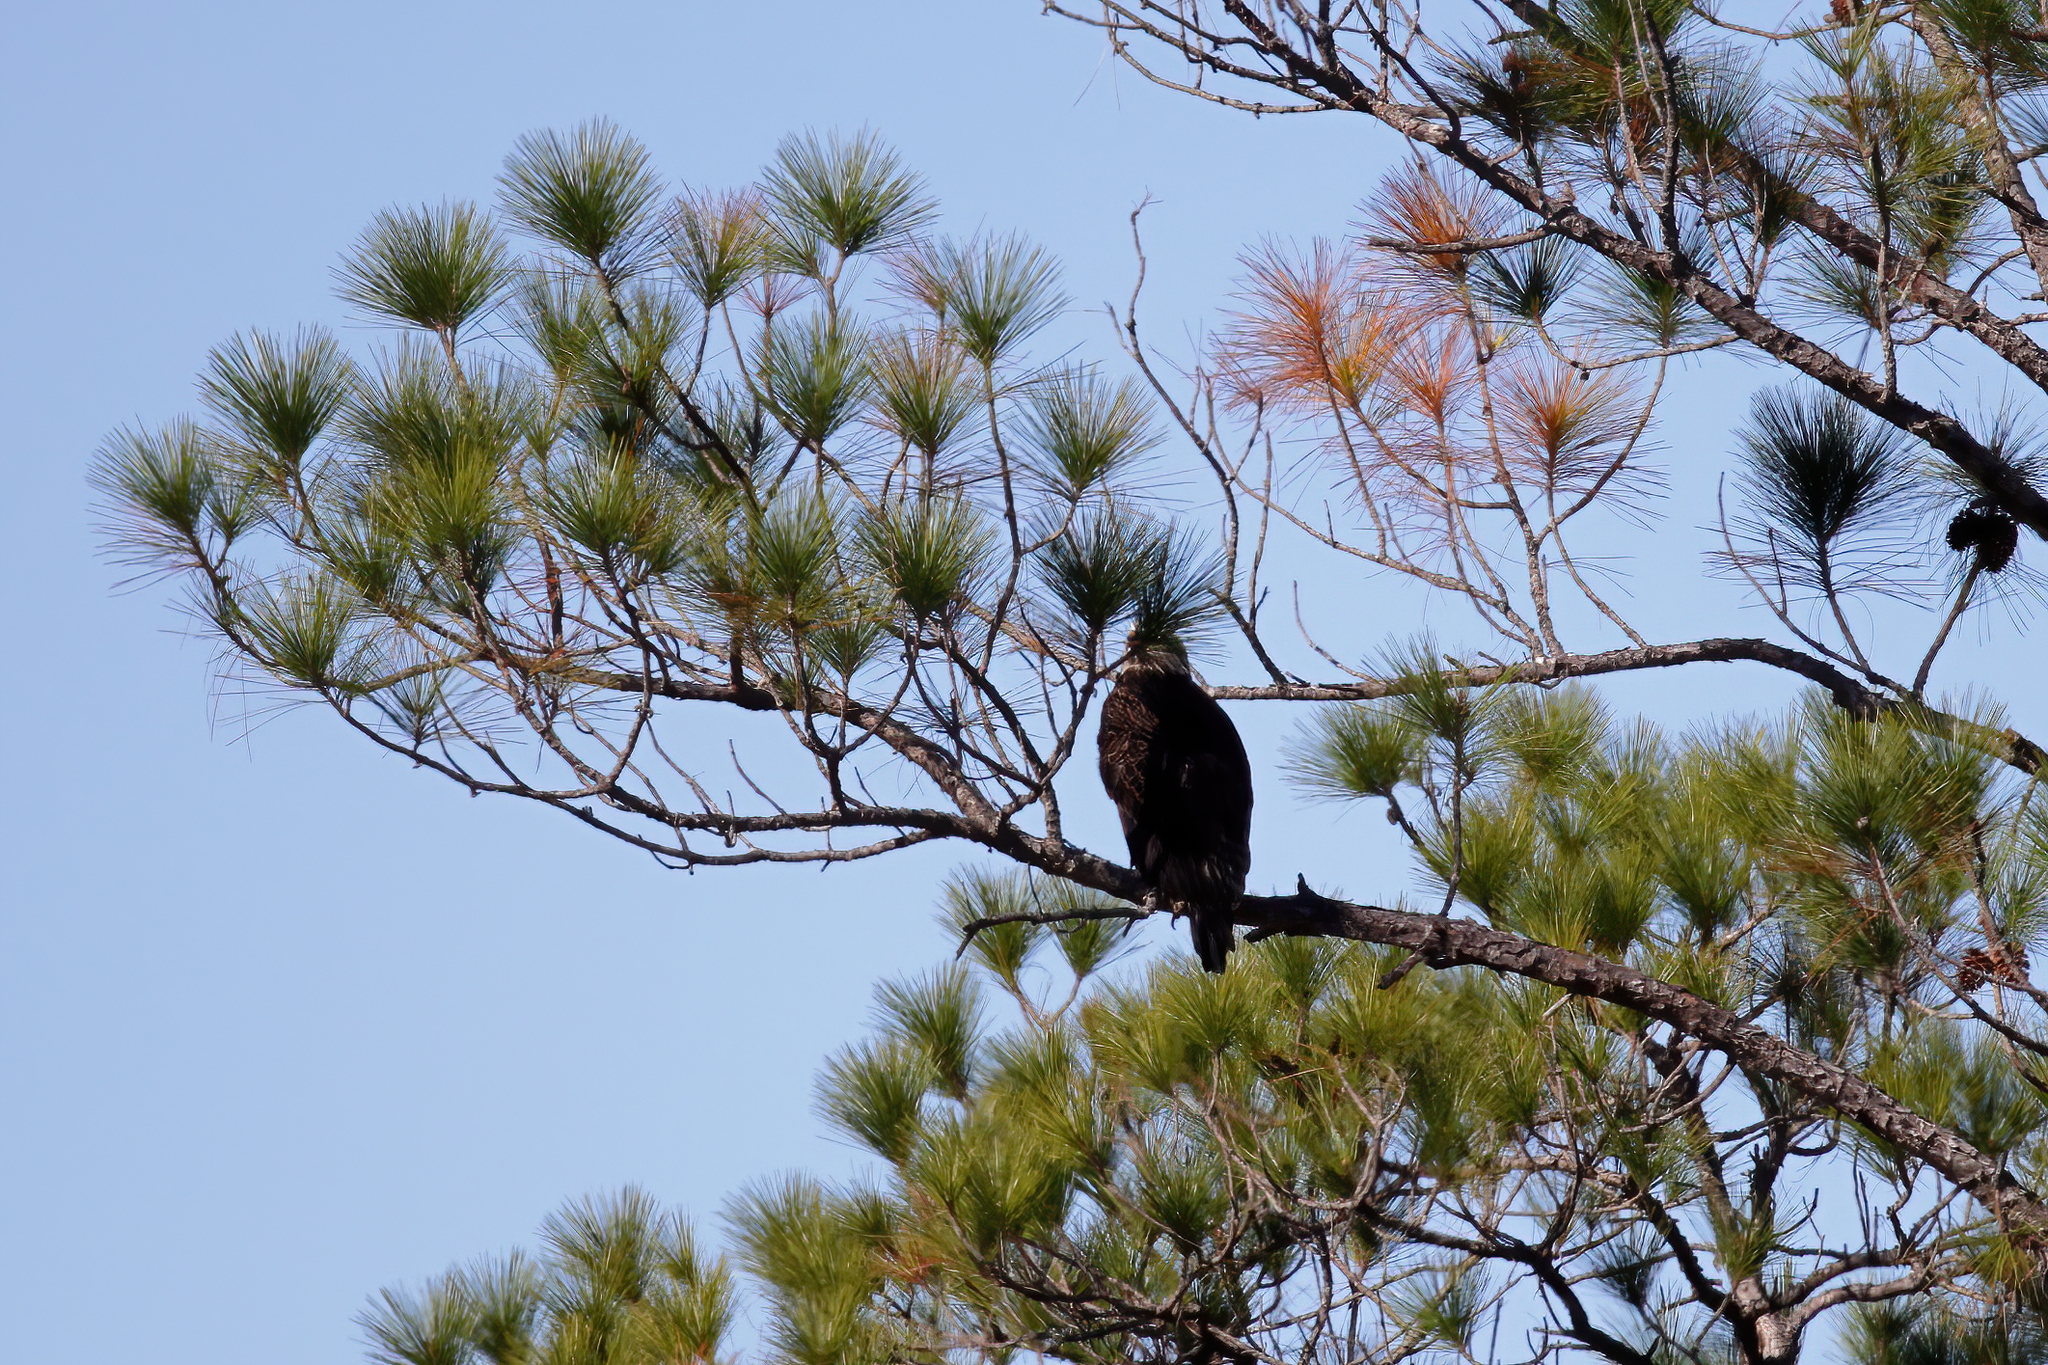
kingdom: Animalia
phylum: Chordata
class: Aves
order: Accipitriformes
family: Accipitridae
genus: Haliaeetus
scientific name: Haliaeetus leucocephalus
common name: Bald eagle
